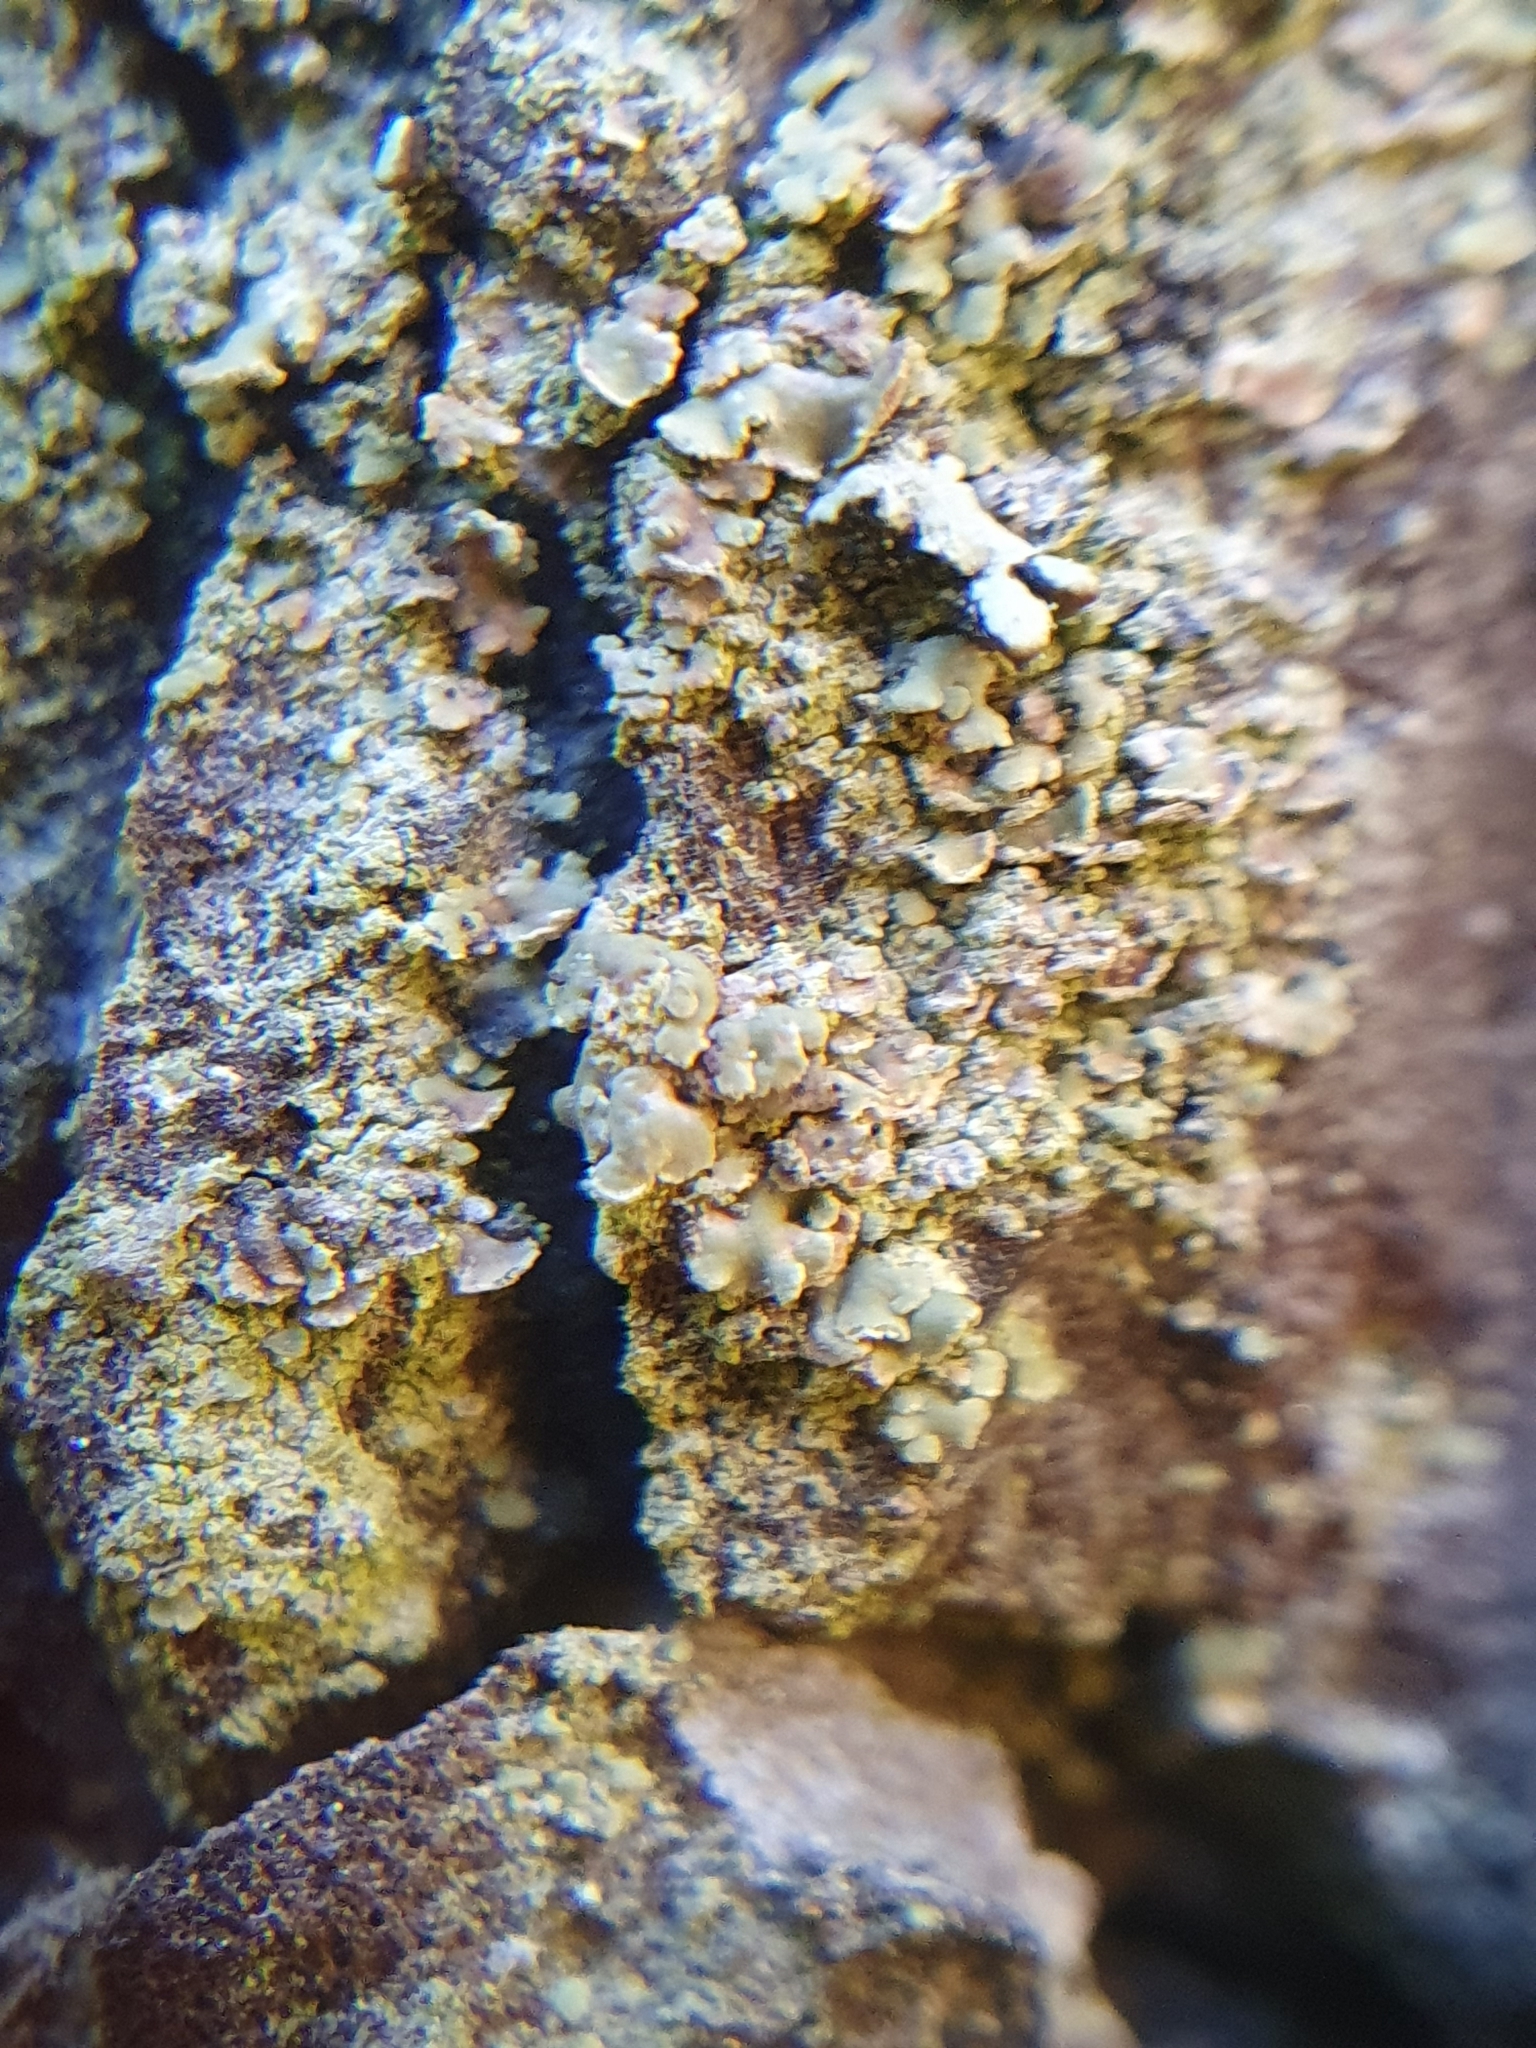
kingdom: Fungi
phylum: Ascomycota
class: Lecanoromycetes
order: Umbilicariales
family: Ophioparmaceae
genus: Hypocenomyce
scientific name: Hypocenomyce scalaris
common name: Common clam lichen
